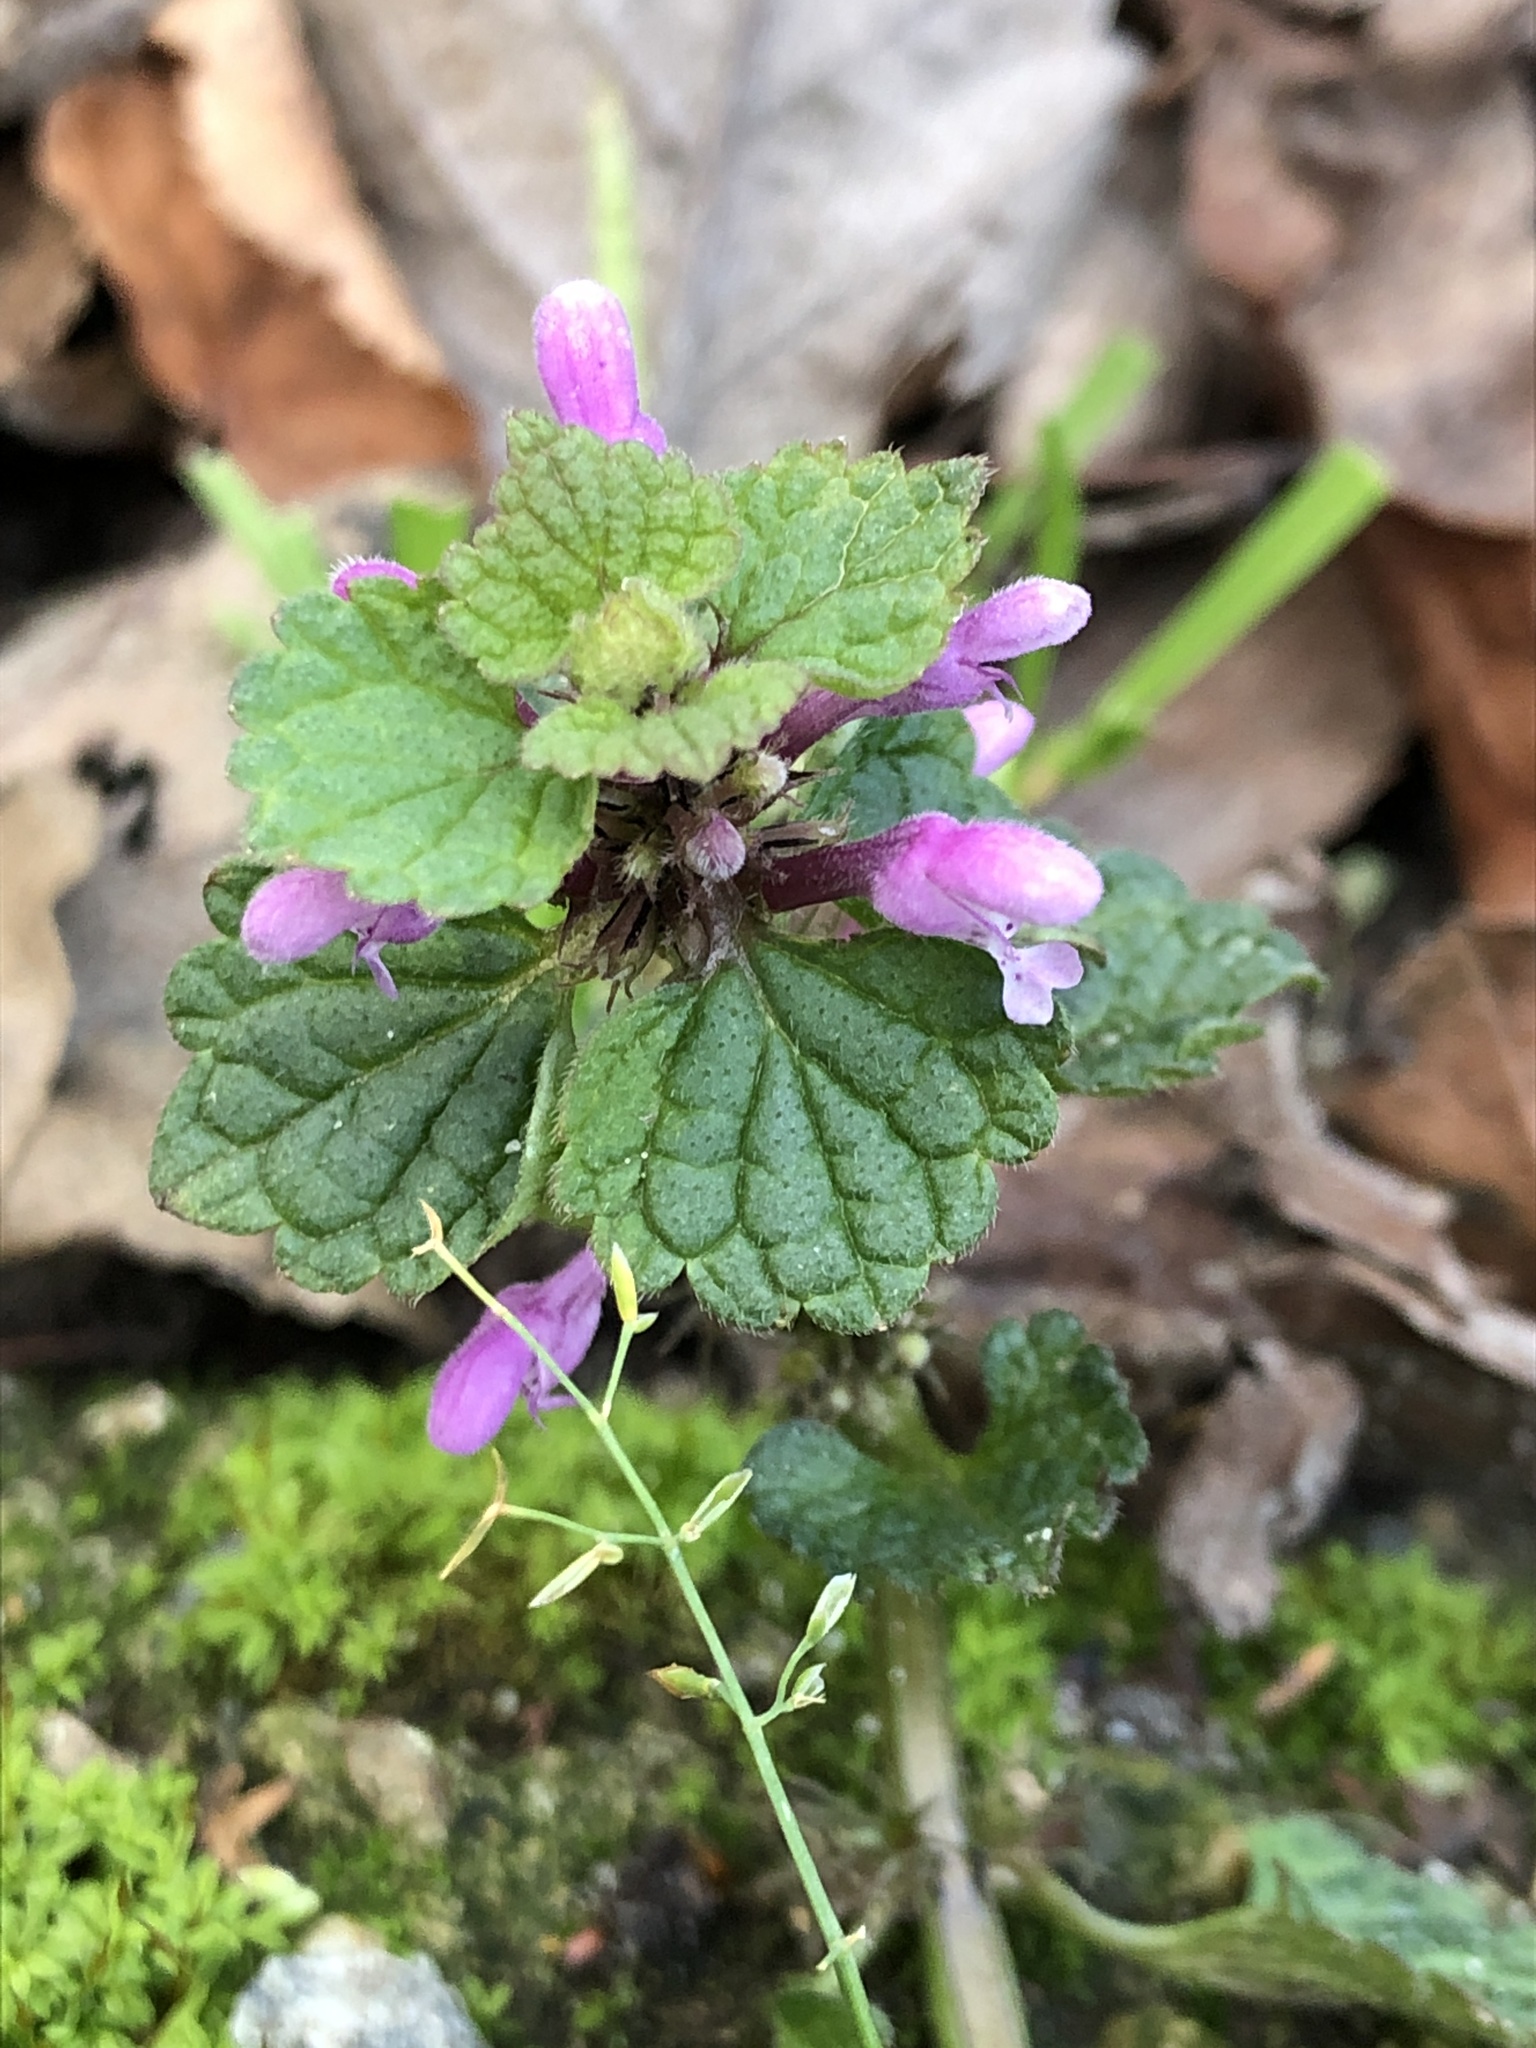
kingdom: Plantae
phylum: Tracheophyta
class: Magnoliopsida
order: Lamiales
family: Lamiaceae
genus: Lamium
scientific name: Lamium purpureum
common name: Red dead-nettle
